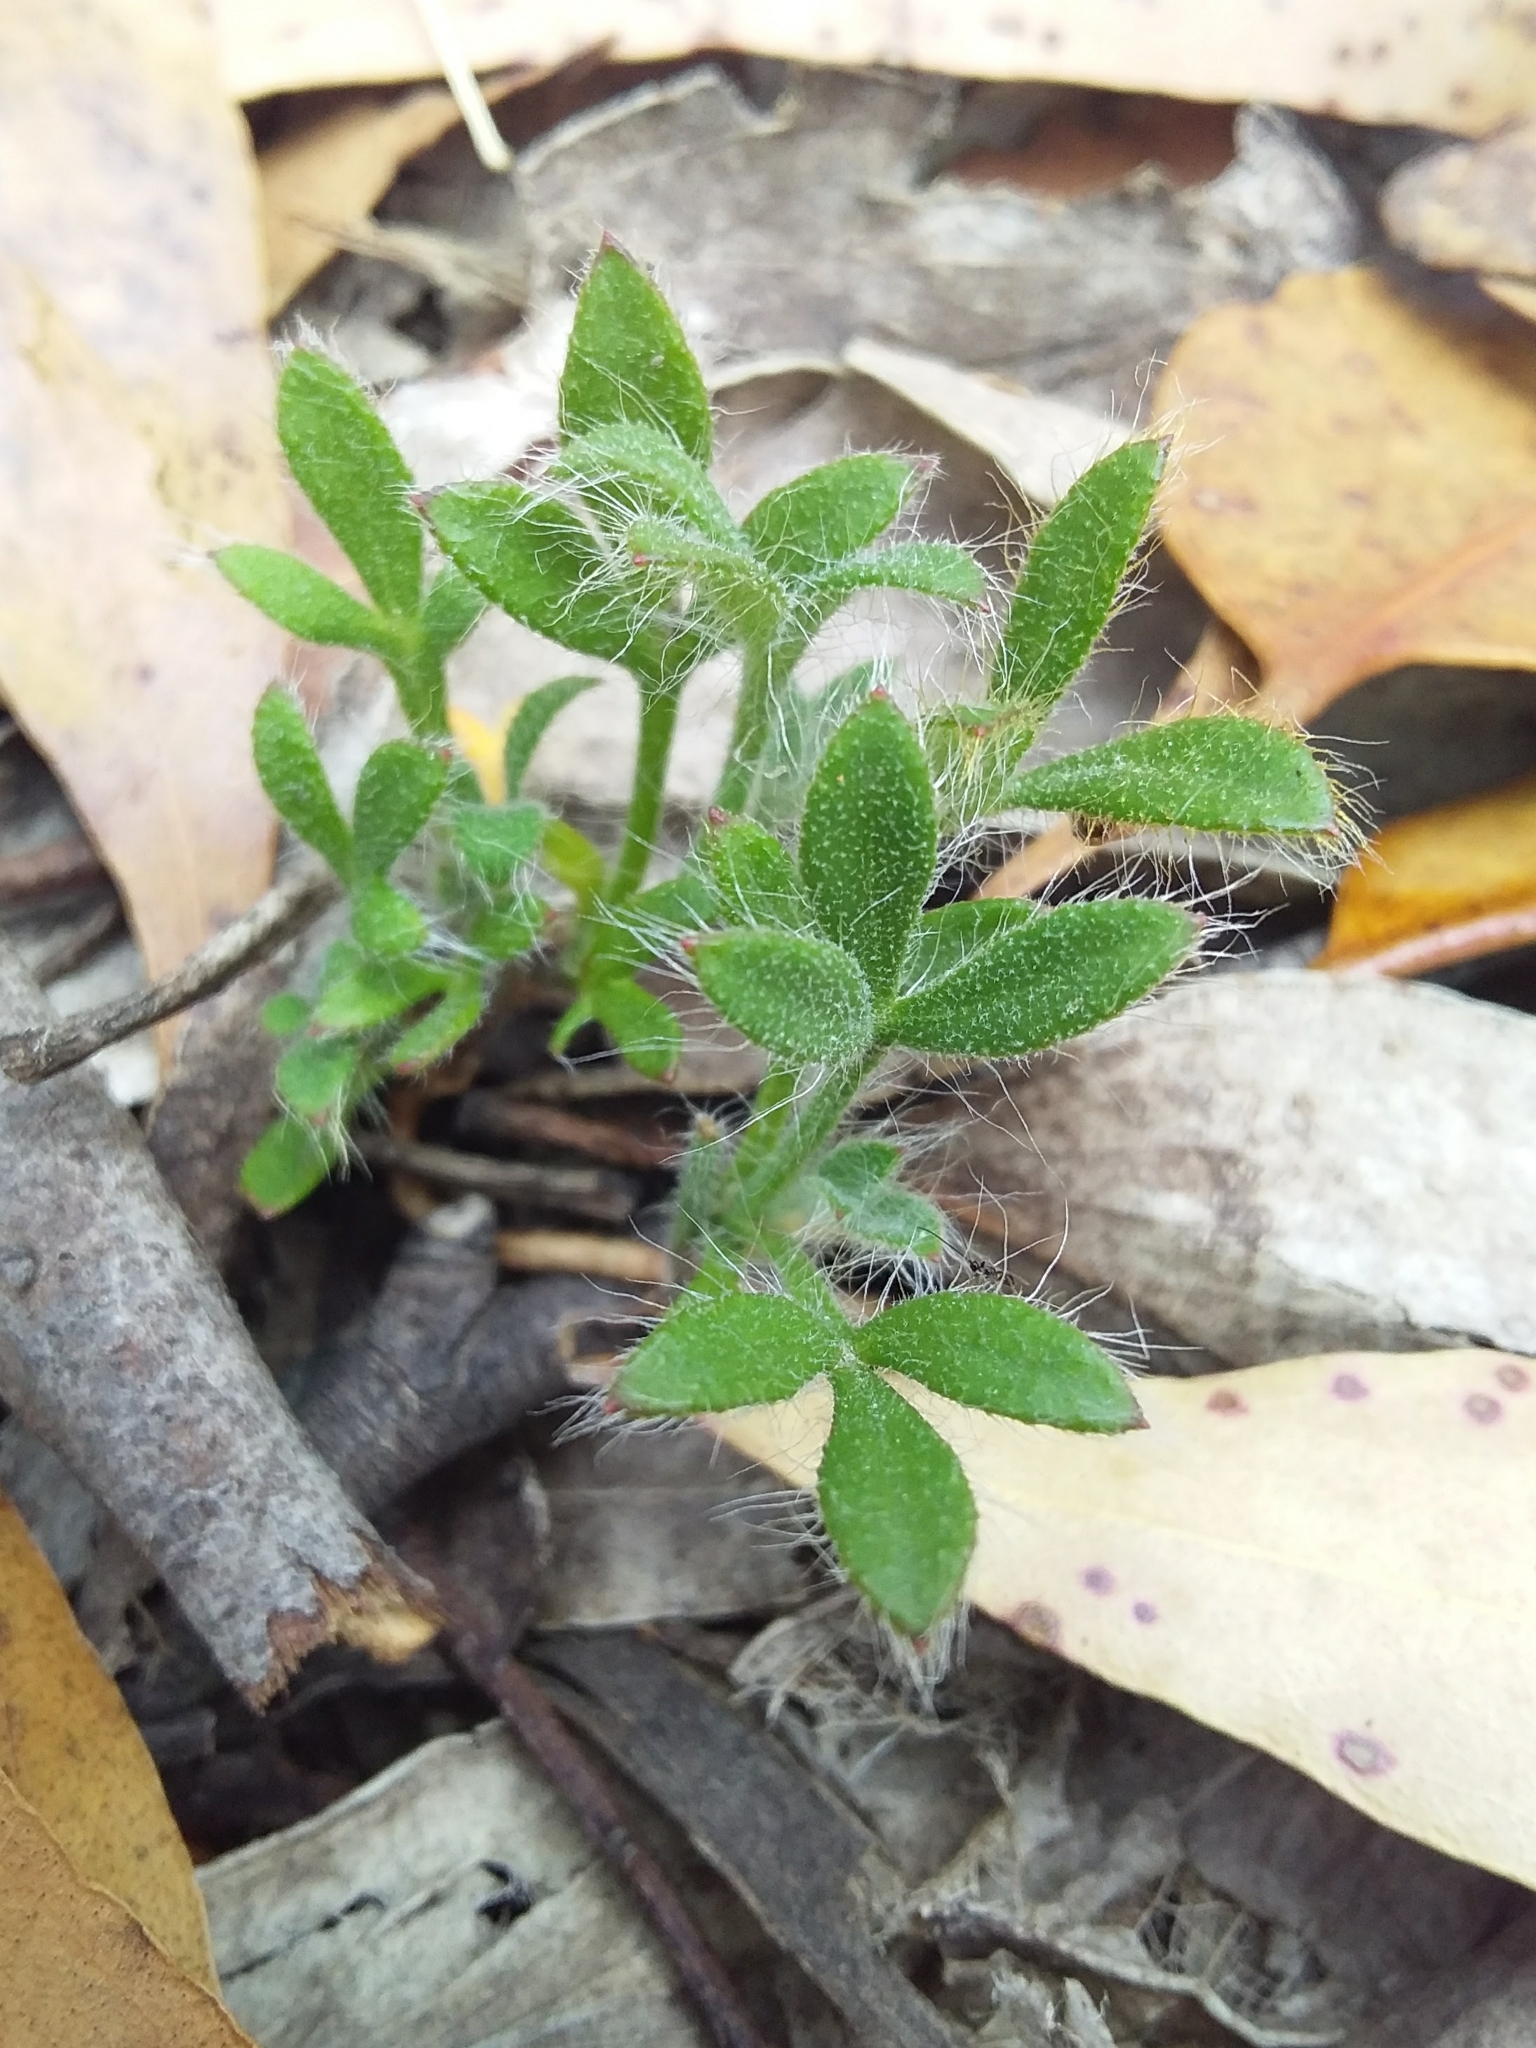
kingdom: Plantae
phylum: Tracheophyta
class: Magnoliopsida
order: Apiales
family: Apiaceae
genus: Xanthosia
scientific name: Xanthosia huegelii
